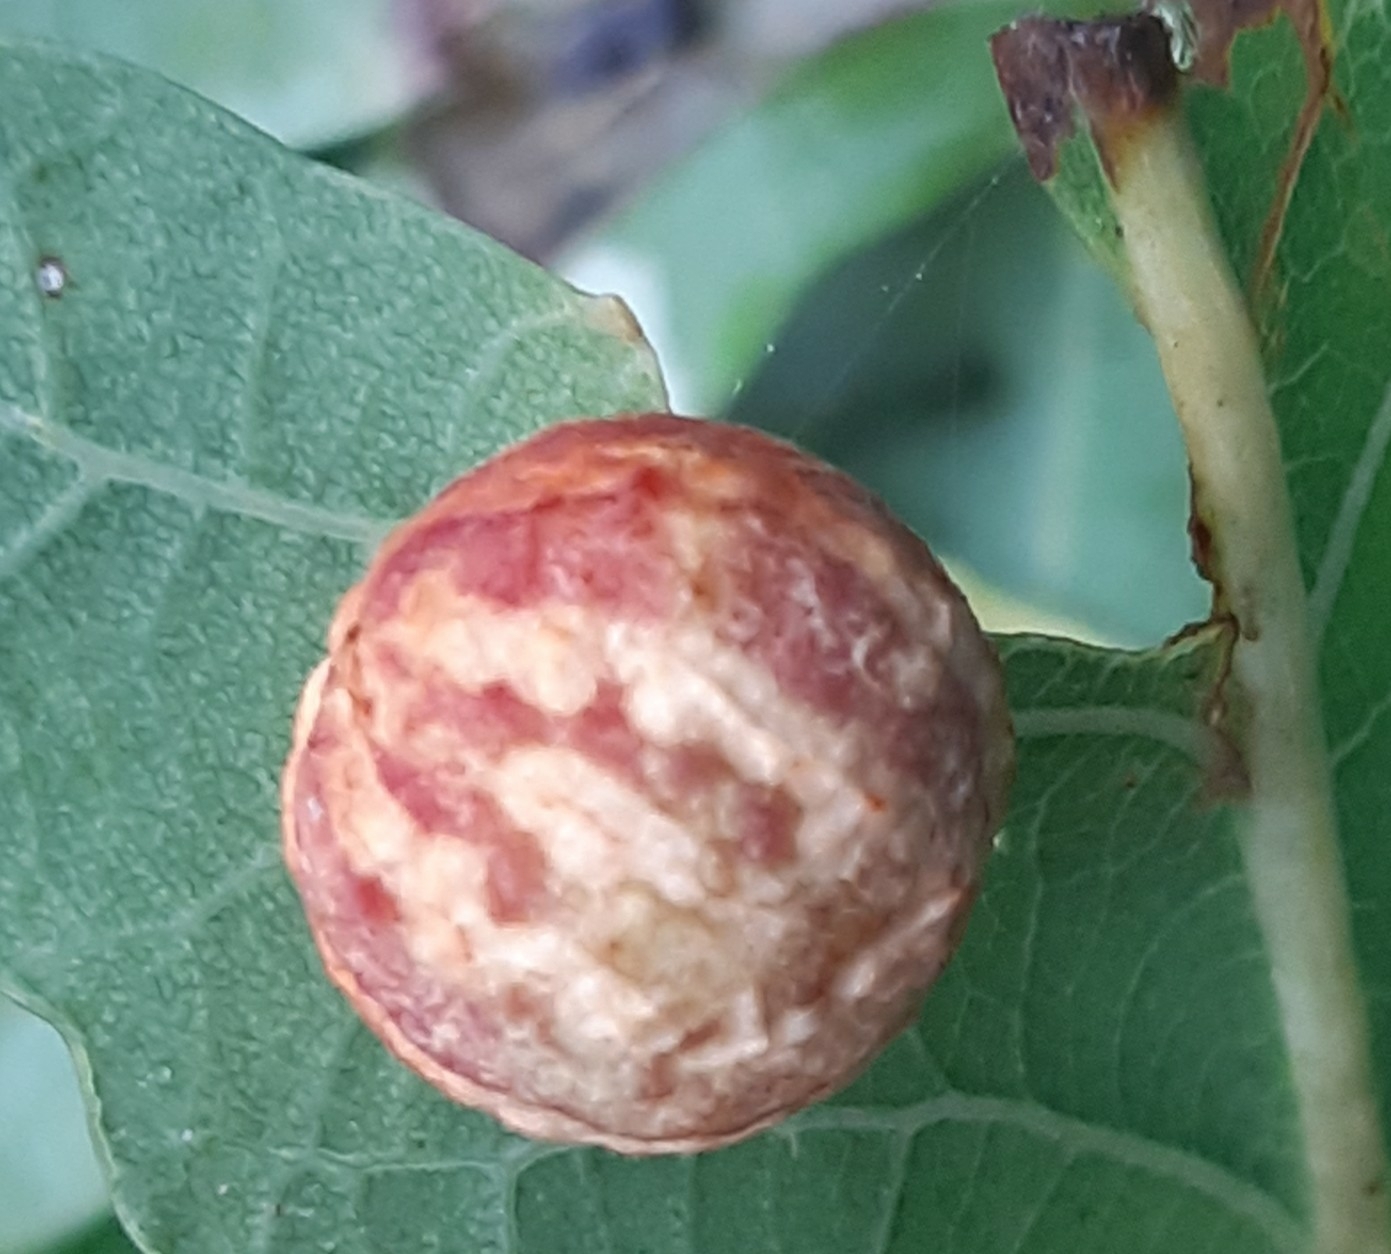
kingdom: Animalia
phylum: Arthropoda
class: Insecta
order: Hymenoptera
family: Cynipidae
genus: Cynips
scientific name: Cynips longiventris
